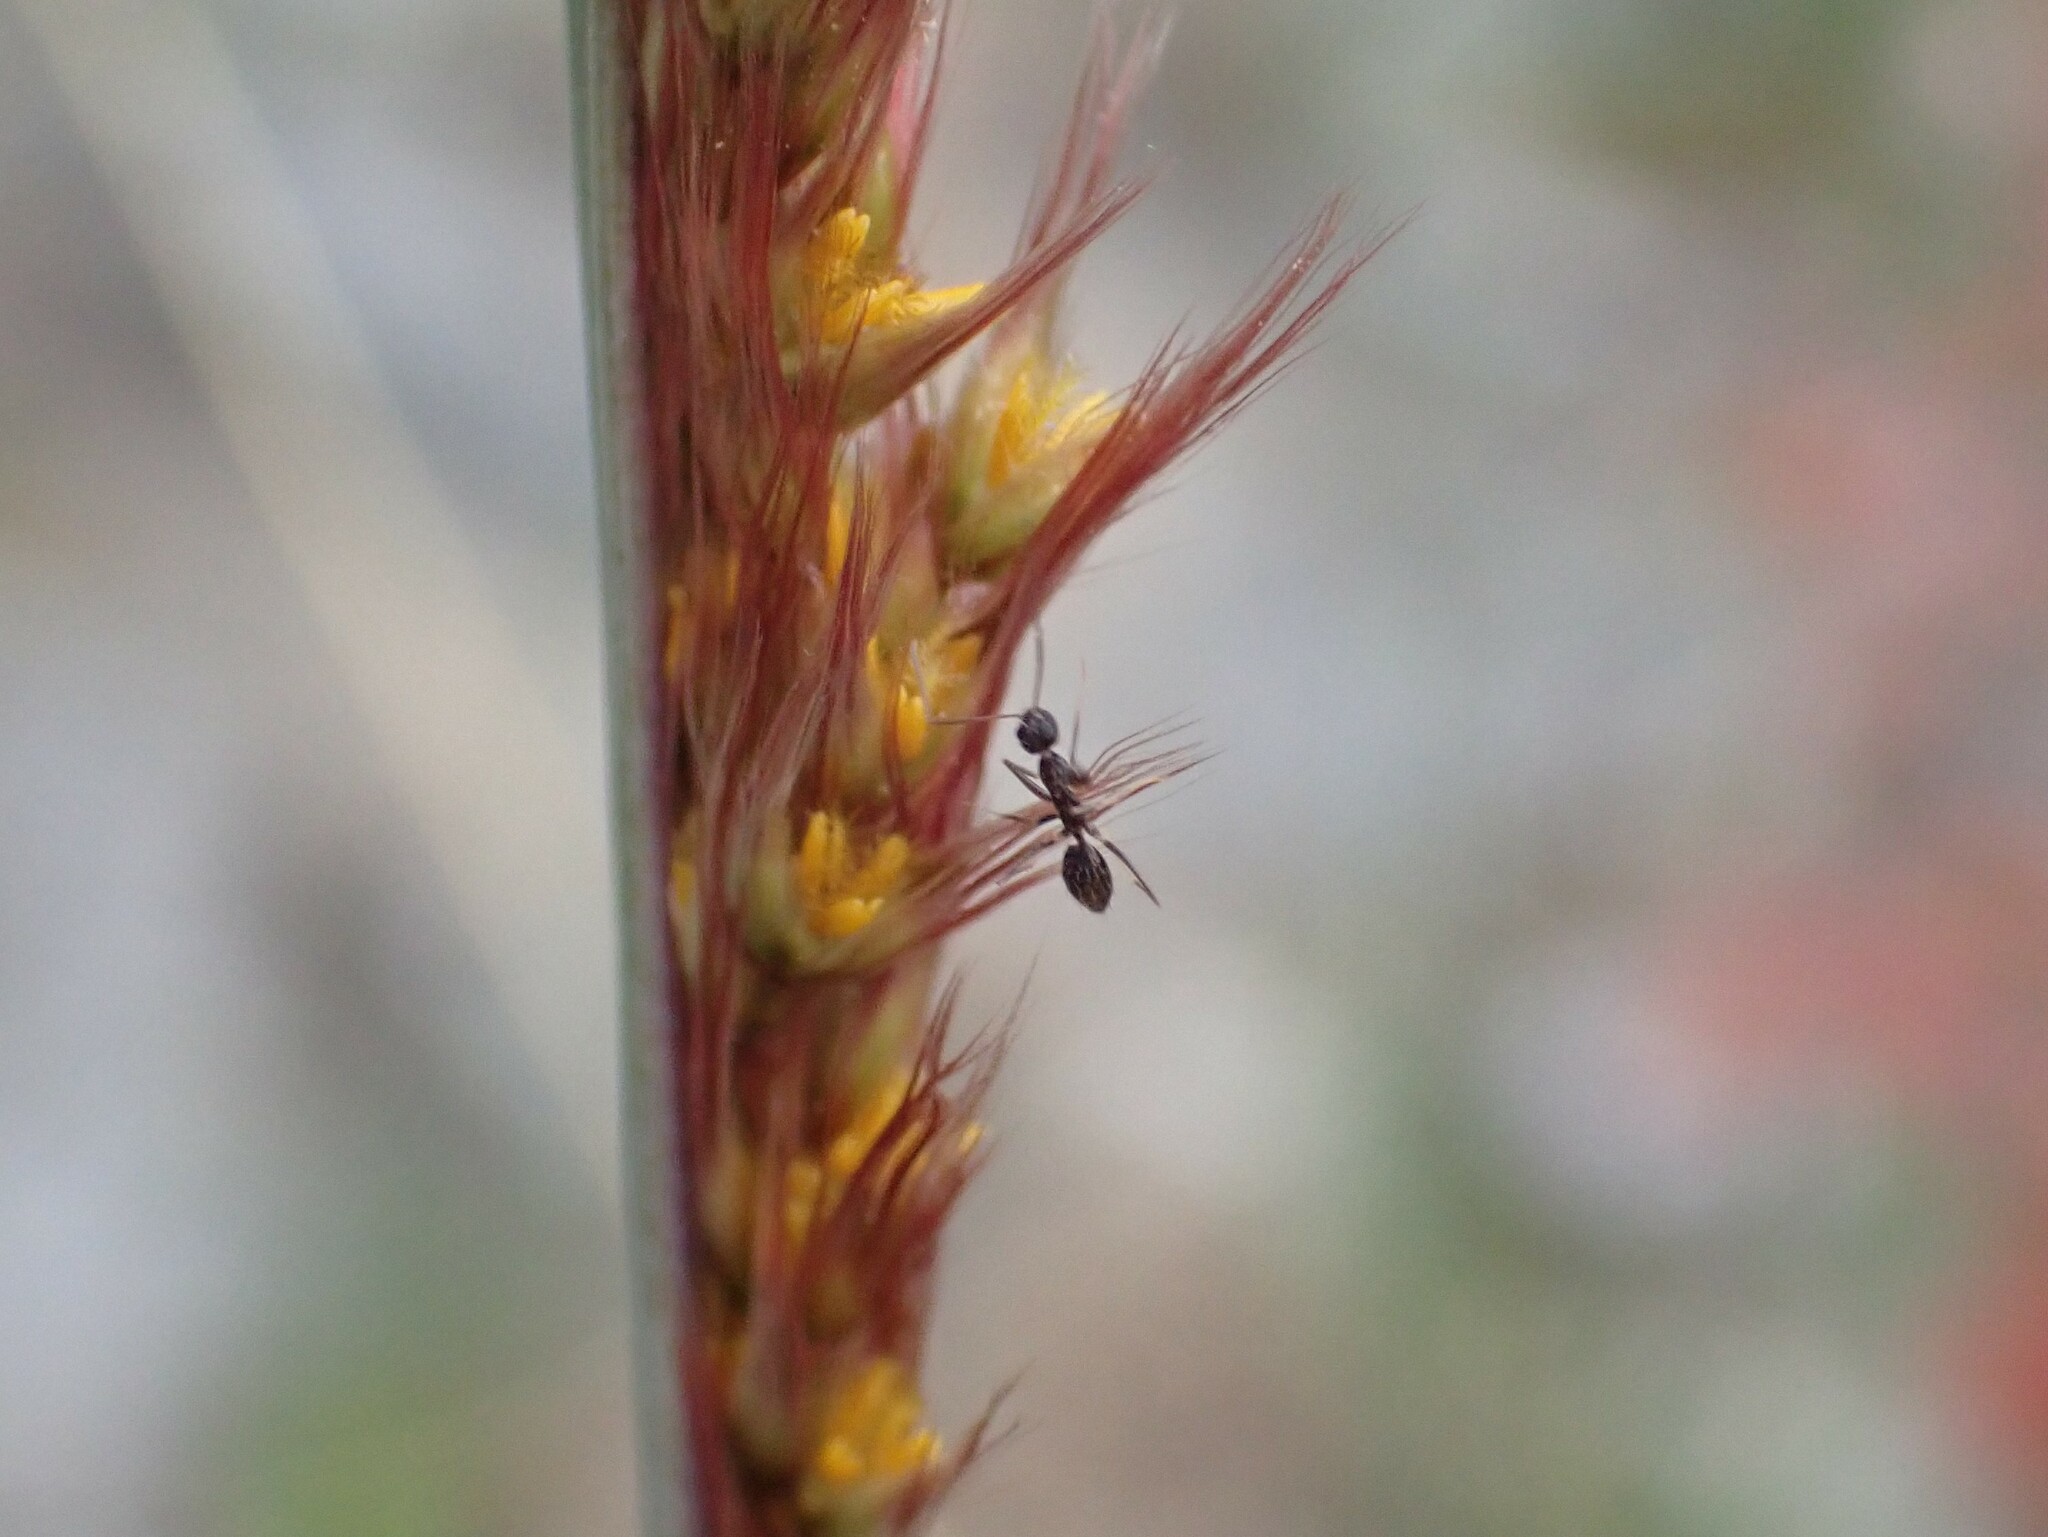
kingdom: Animalia
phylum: Arthropoda
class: Insecta
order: Hymenoptera
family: Formicidae
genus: Paratrechina
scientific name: Paratrechina longicornis
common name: Longhorned crazy ant
